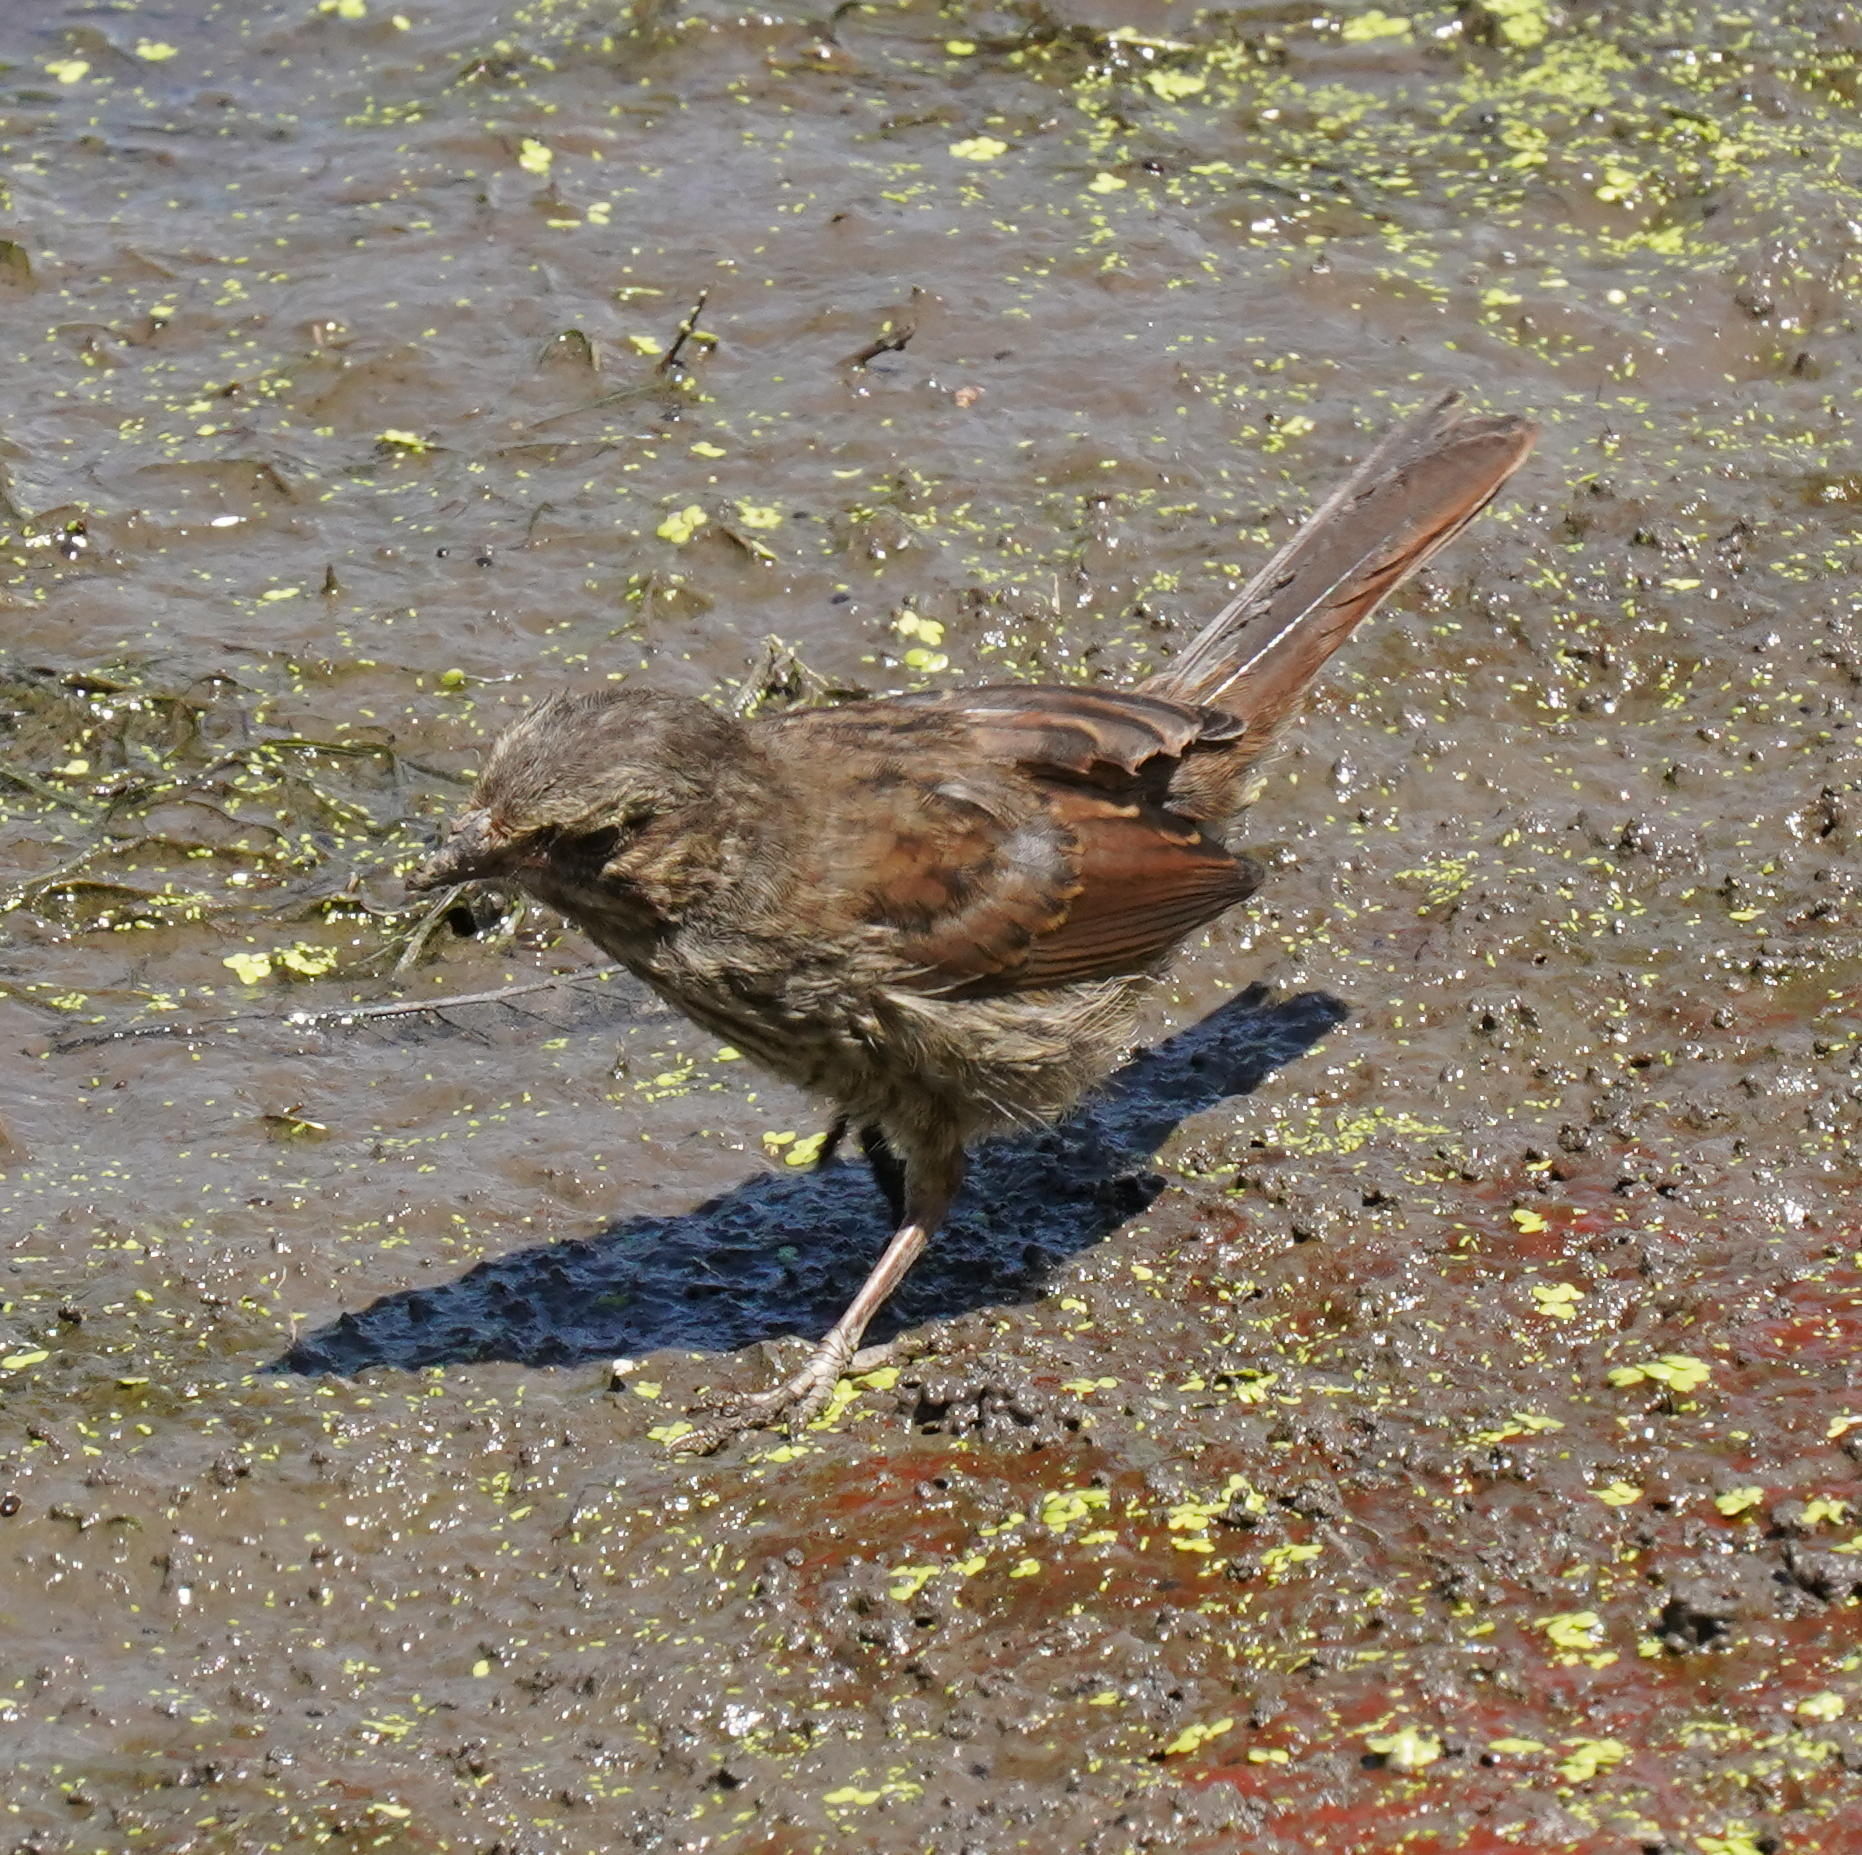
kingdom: Animalia
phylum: Chordata
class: Aves
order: Passeriformes
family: Passerellidae
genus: Melospiza
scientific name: Melospiza melodia
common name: Song sparrow
